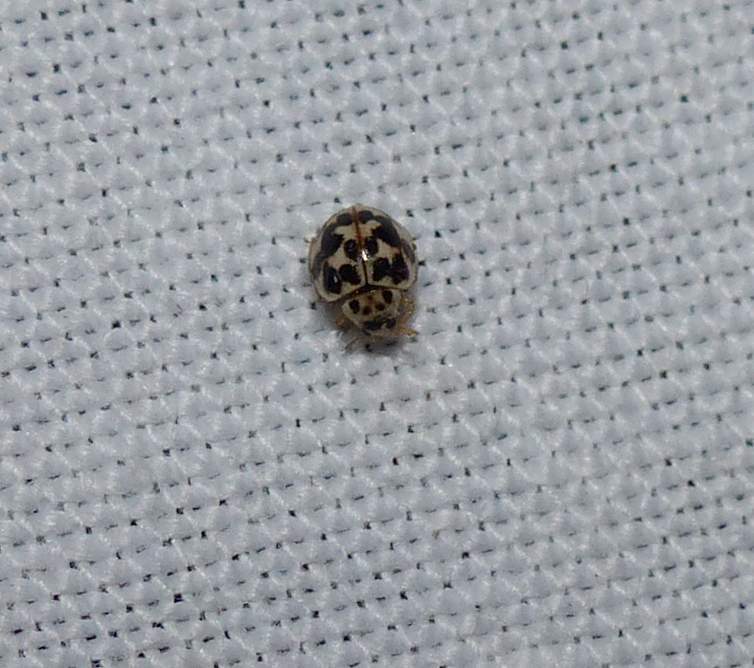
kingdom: Animalia
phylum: Arthropoda
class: Insecta
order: Coleoptera
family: Coccinellidae
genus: Psyllobora
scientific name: Psyllobora vigintimaculata
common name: Ladybird beetle
